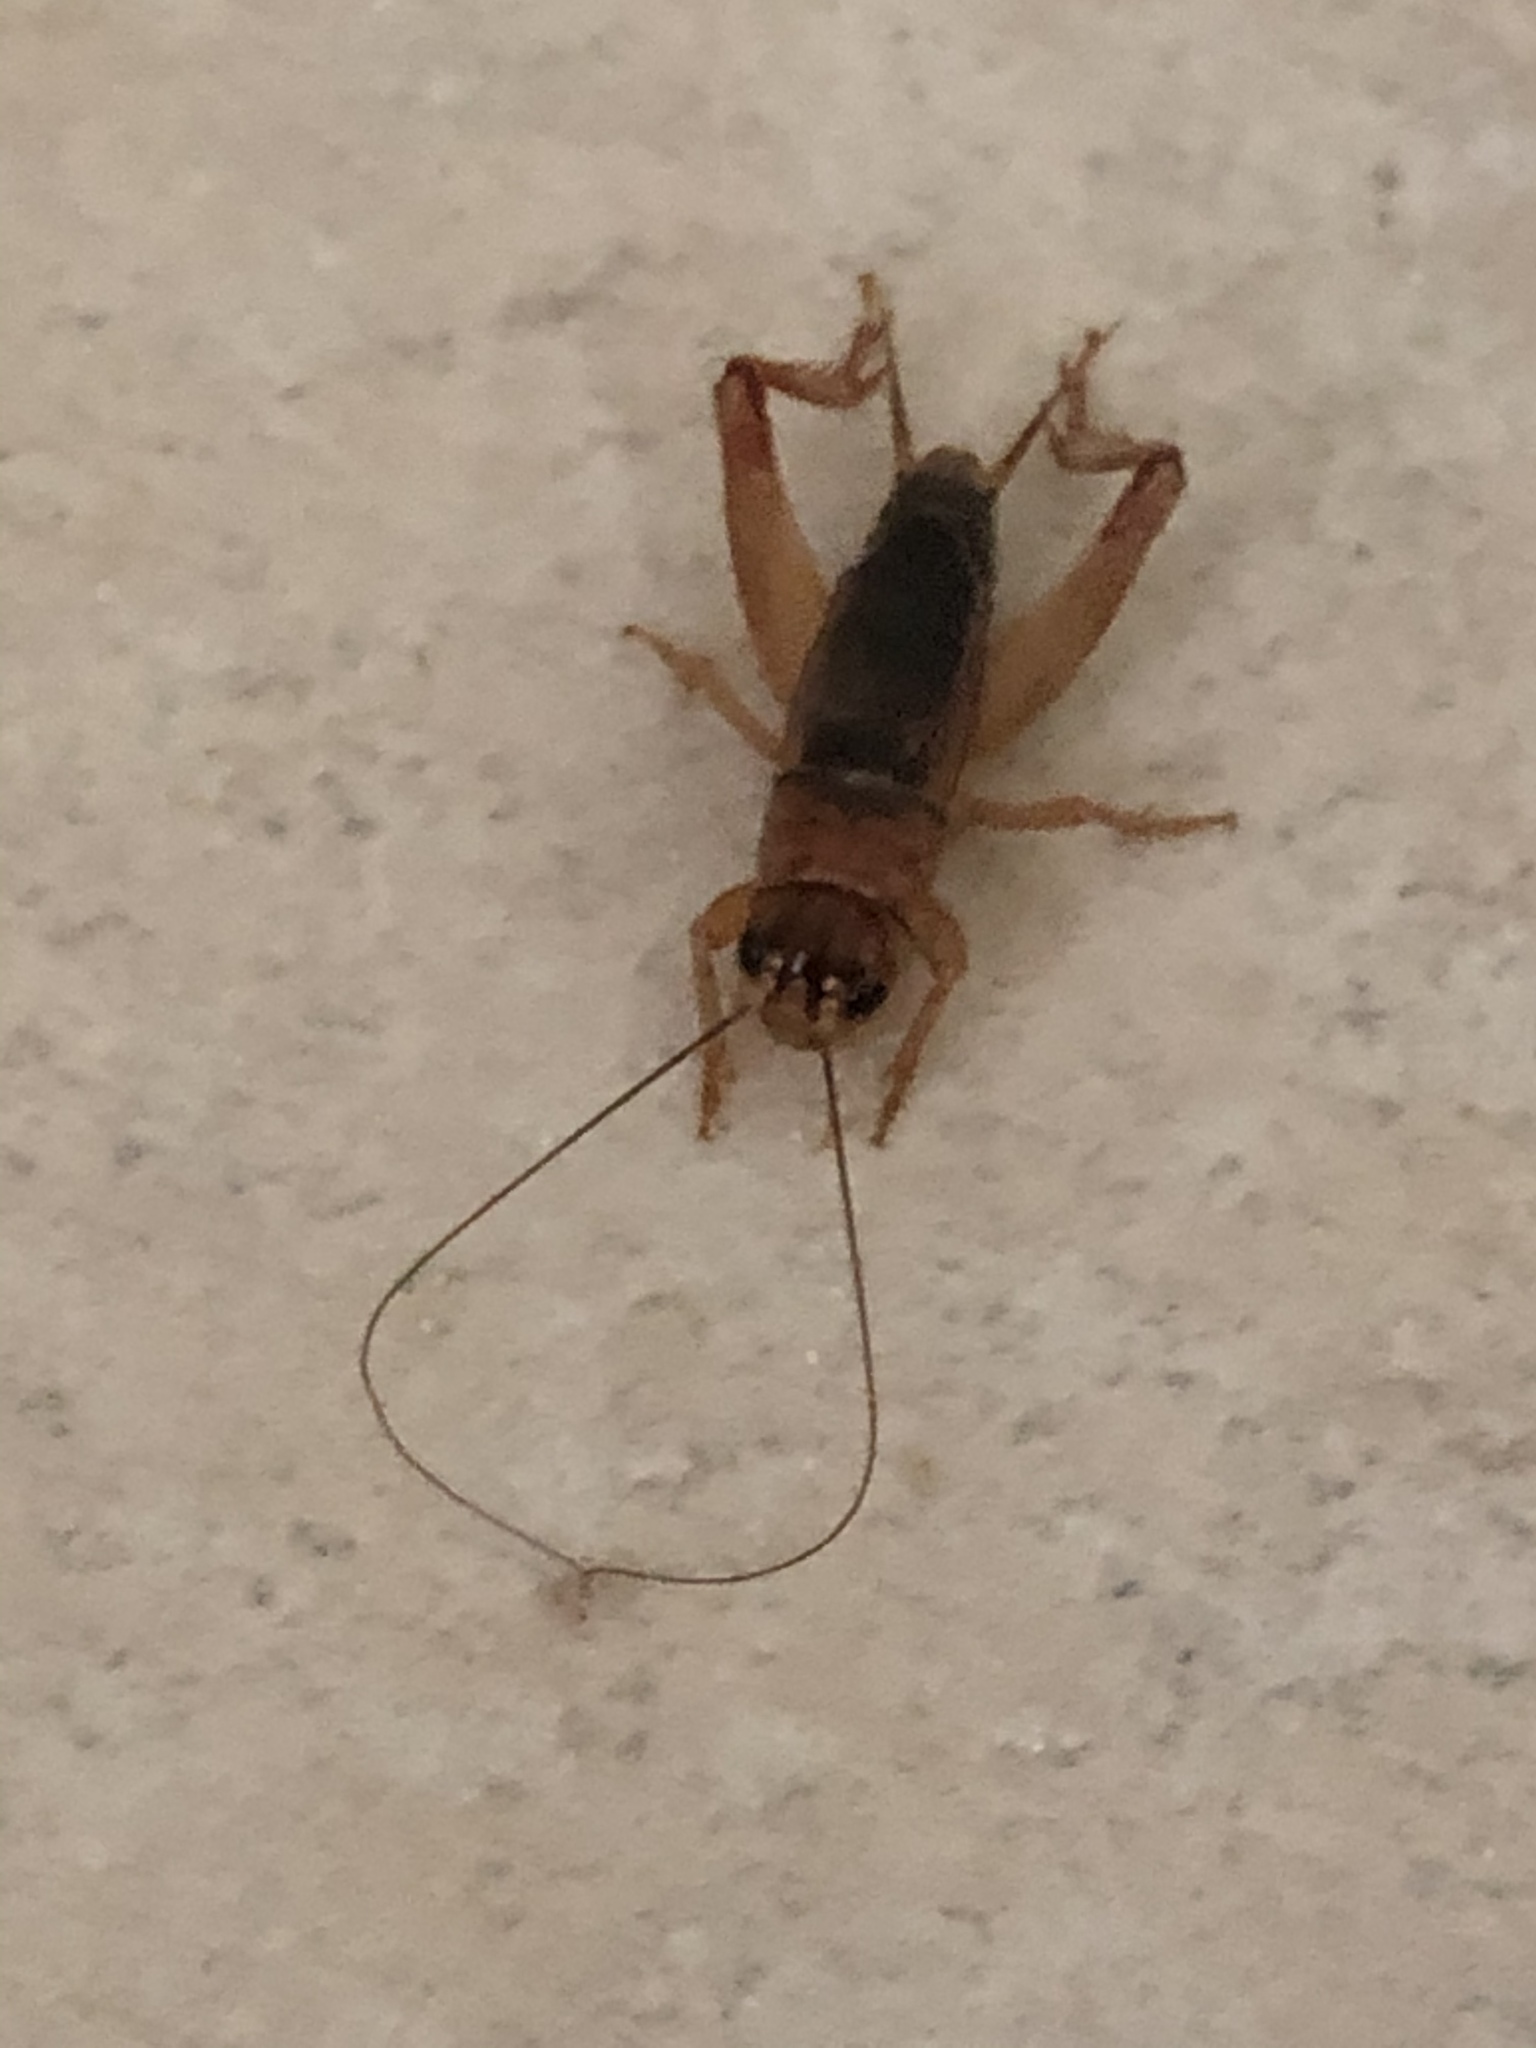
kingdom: Animalia
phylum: Arthropoda
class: Insecta
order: Orthoptera
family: Gryllidae
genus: Acheta
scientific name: Acheta domesticus
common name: House cricket
